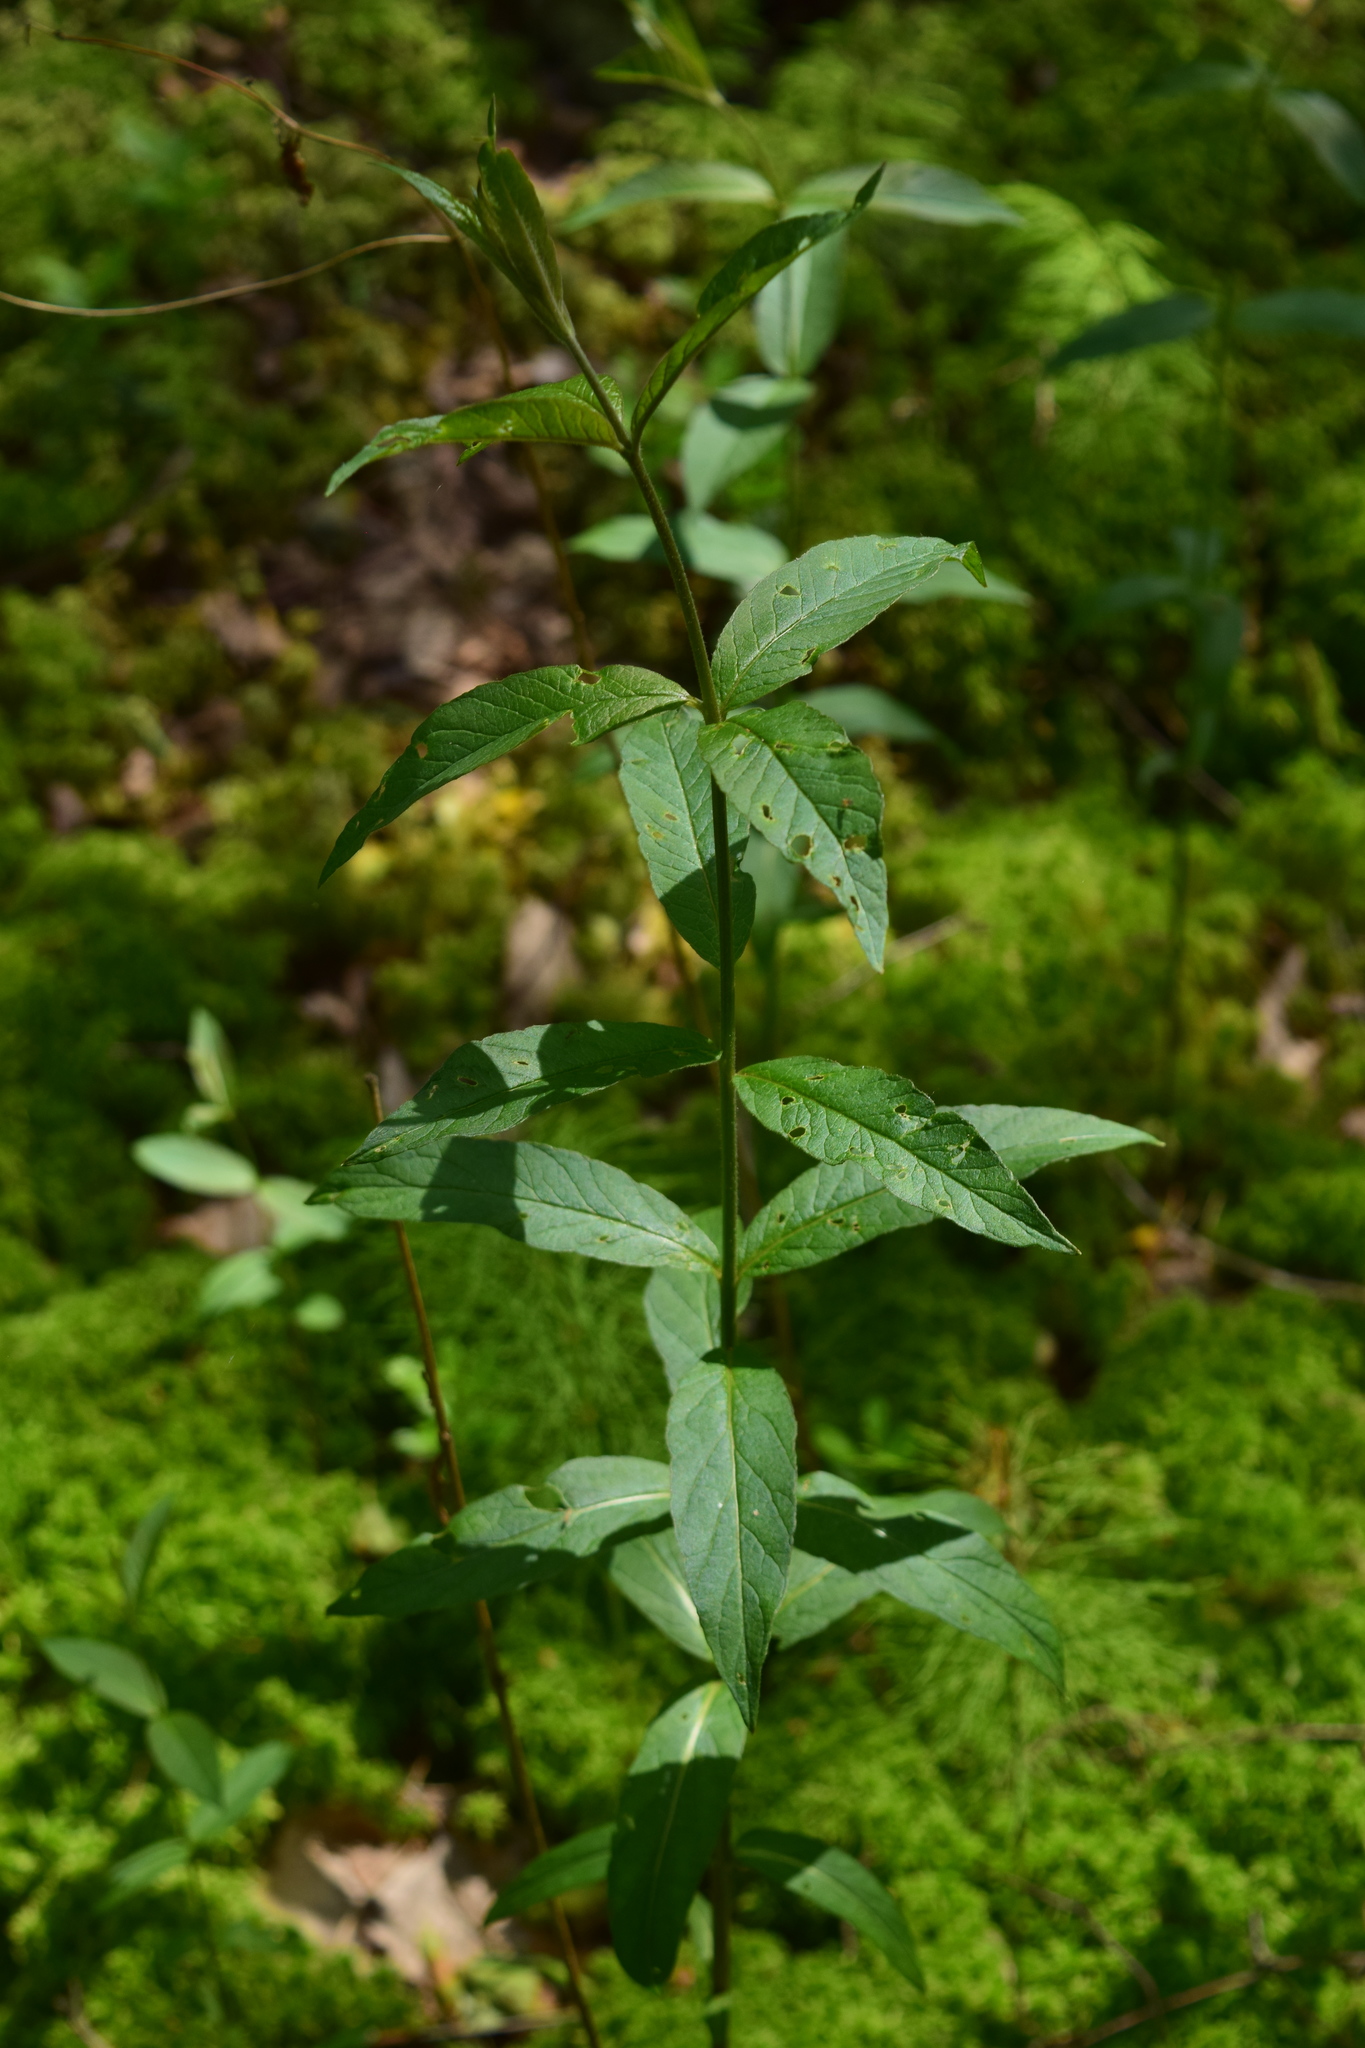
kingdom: Plantae
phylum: Tracheophyta
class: Magnoliopsida
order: Ericales
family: Primulaceae
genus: Lysimachia
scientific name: Lysimachia vulgaris
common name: Yellow loosestrife
